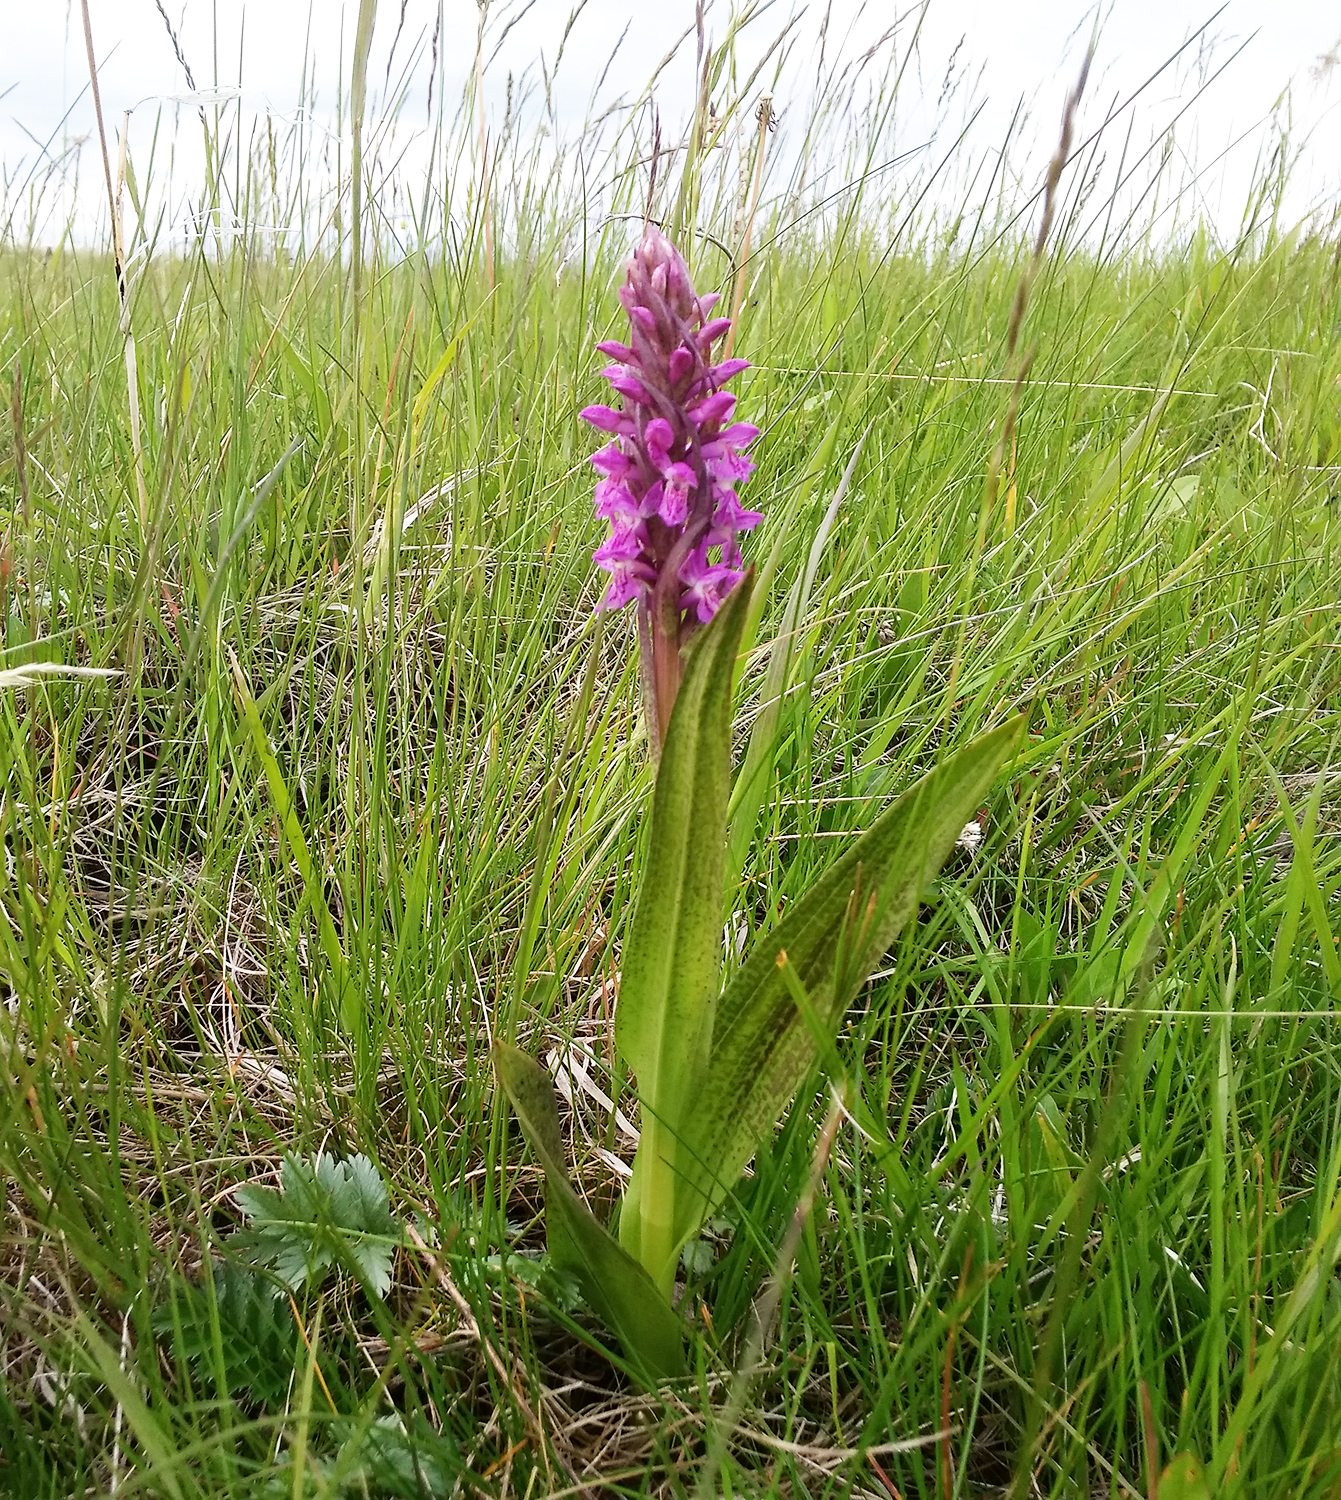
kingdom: Plantae
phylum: Tracheophyta
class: Liliopsida
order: Asparagales
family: Orchidaceae
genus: Dactylorhiza
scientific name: Dactylorhiza incarnata
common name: Early marsh-orchid
